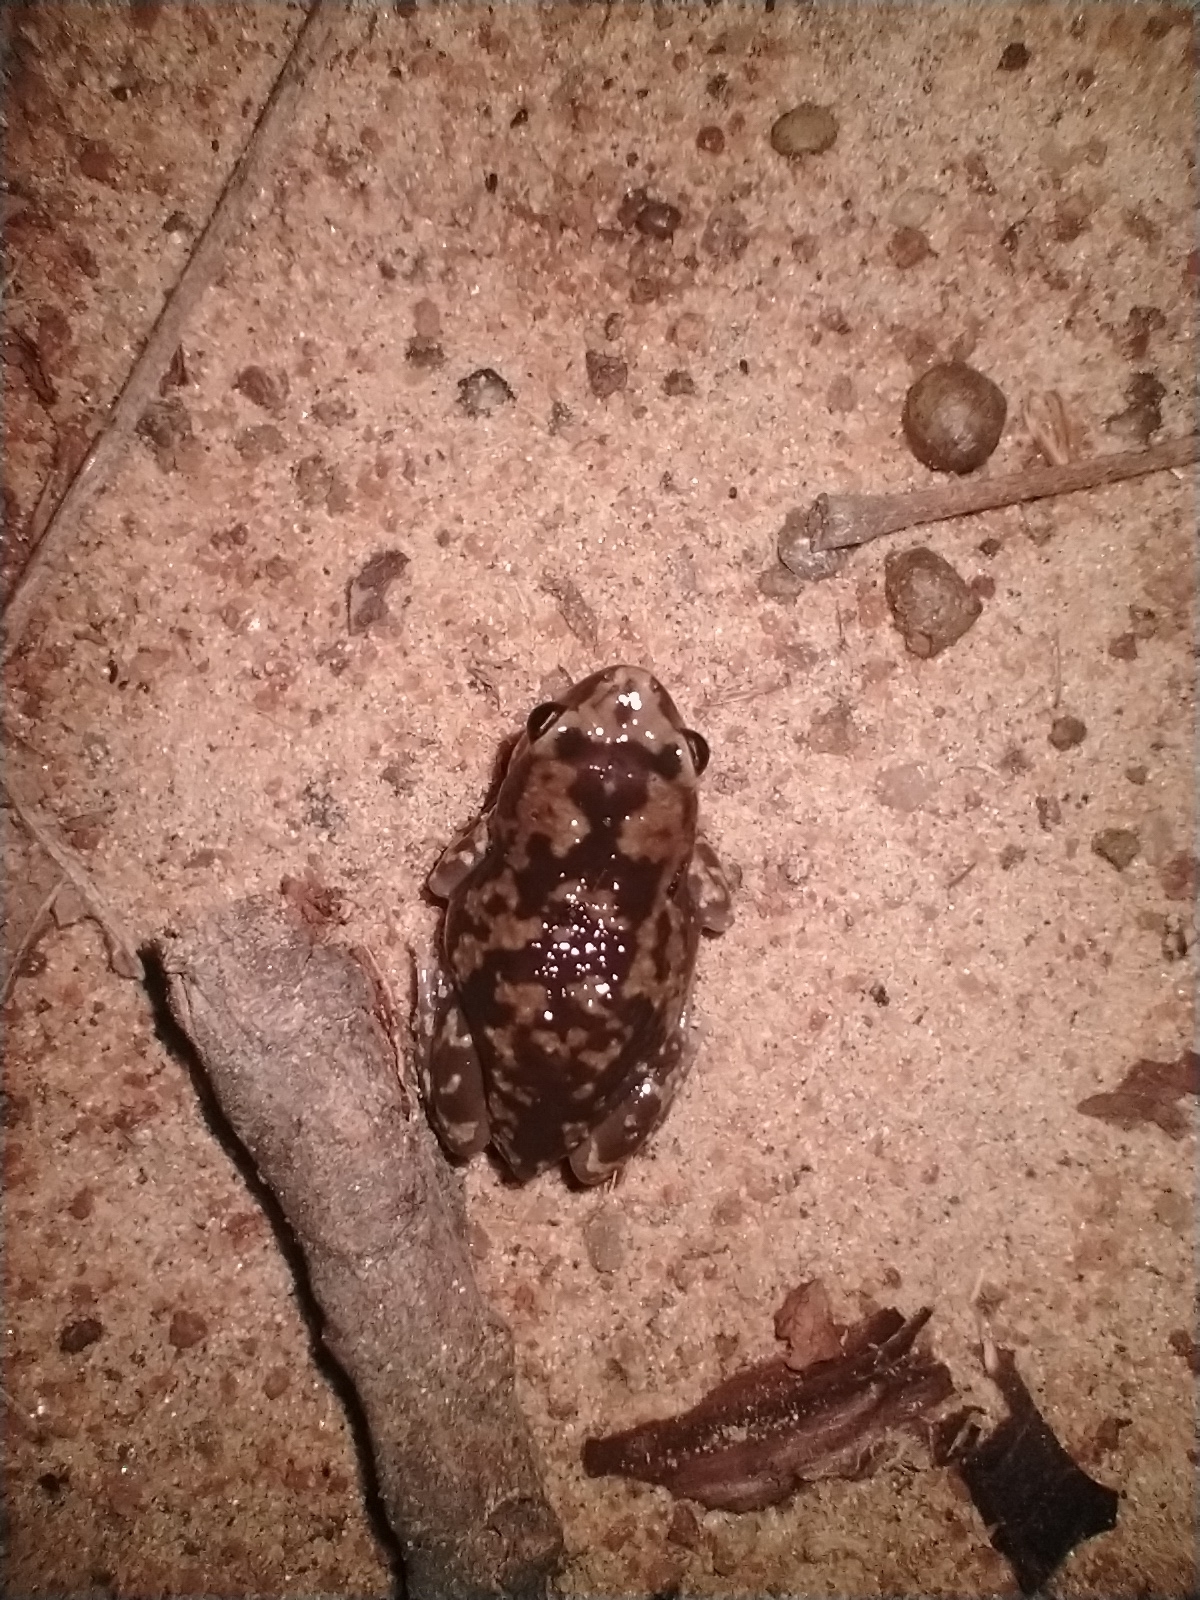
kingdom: Animalia
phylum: Chordata
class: Amphibia
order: Anura
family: Microhylidae
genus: Uperodon
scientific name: Uperodon variegatus
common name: Eluru dot frog
